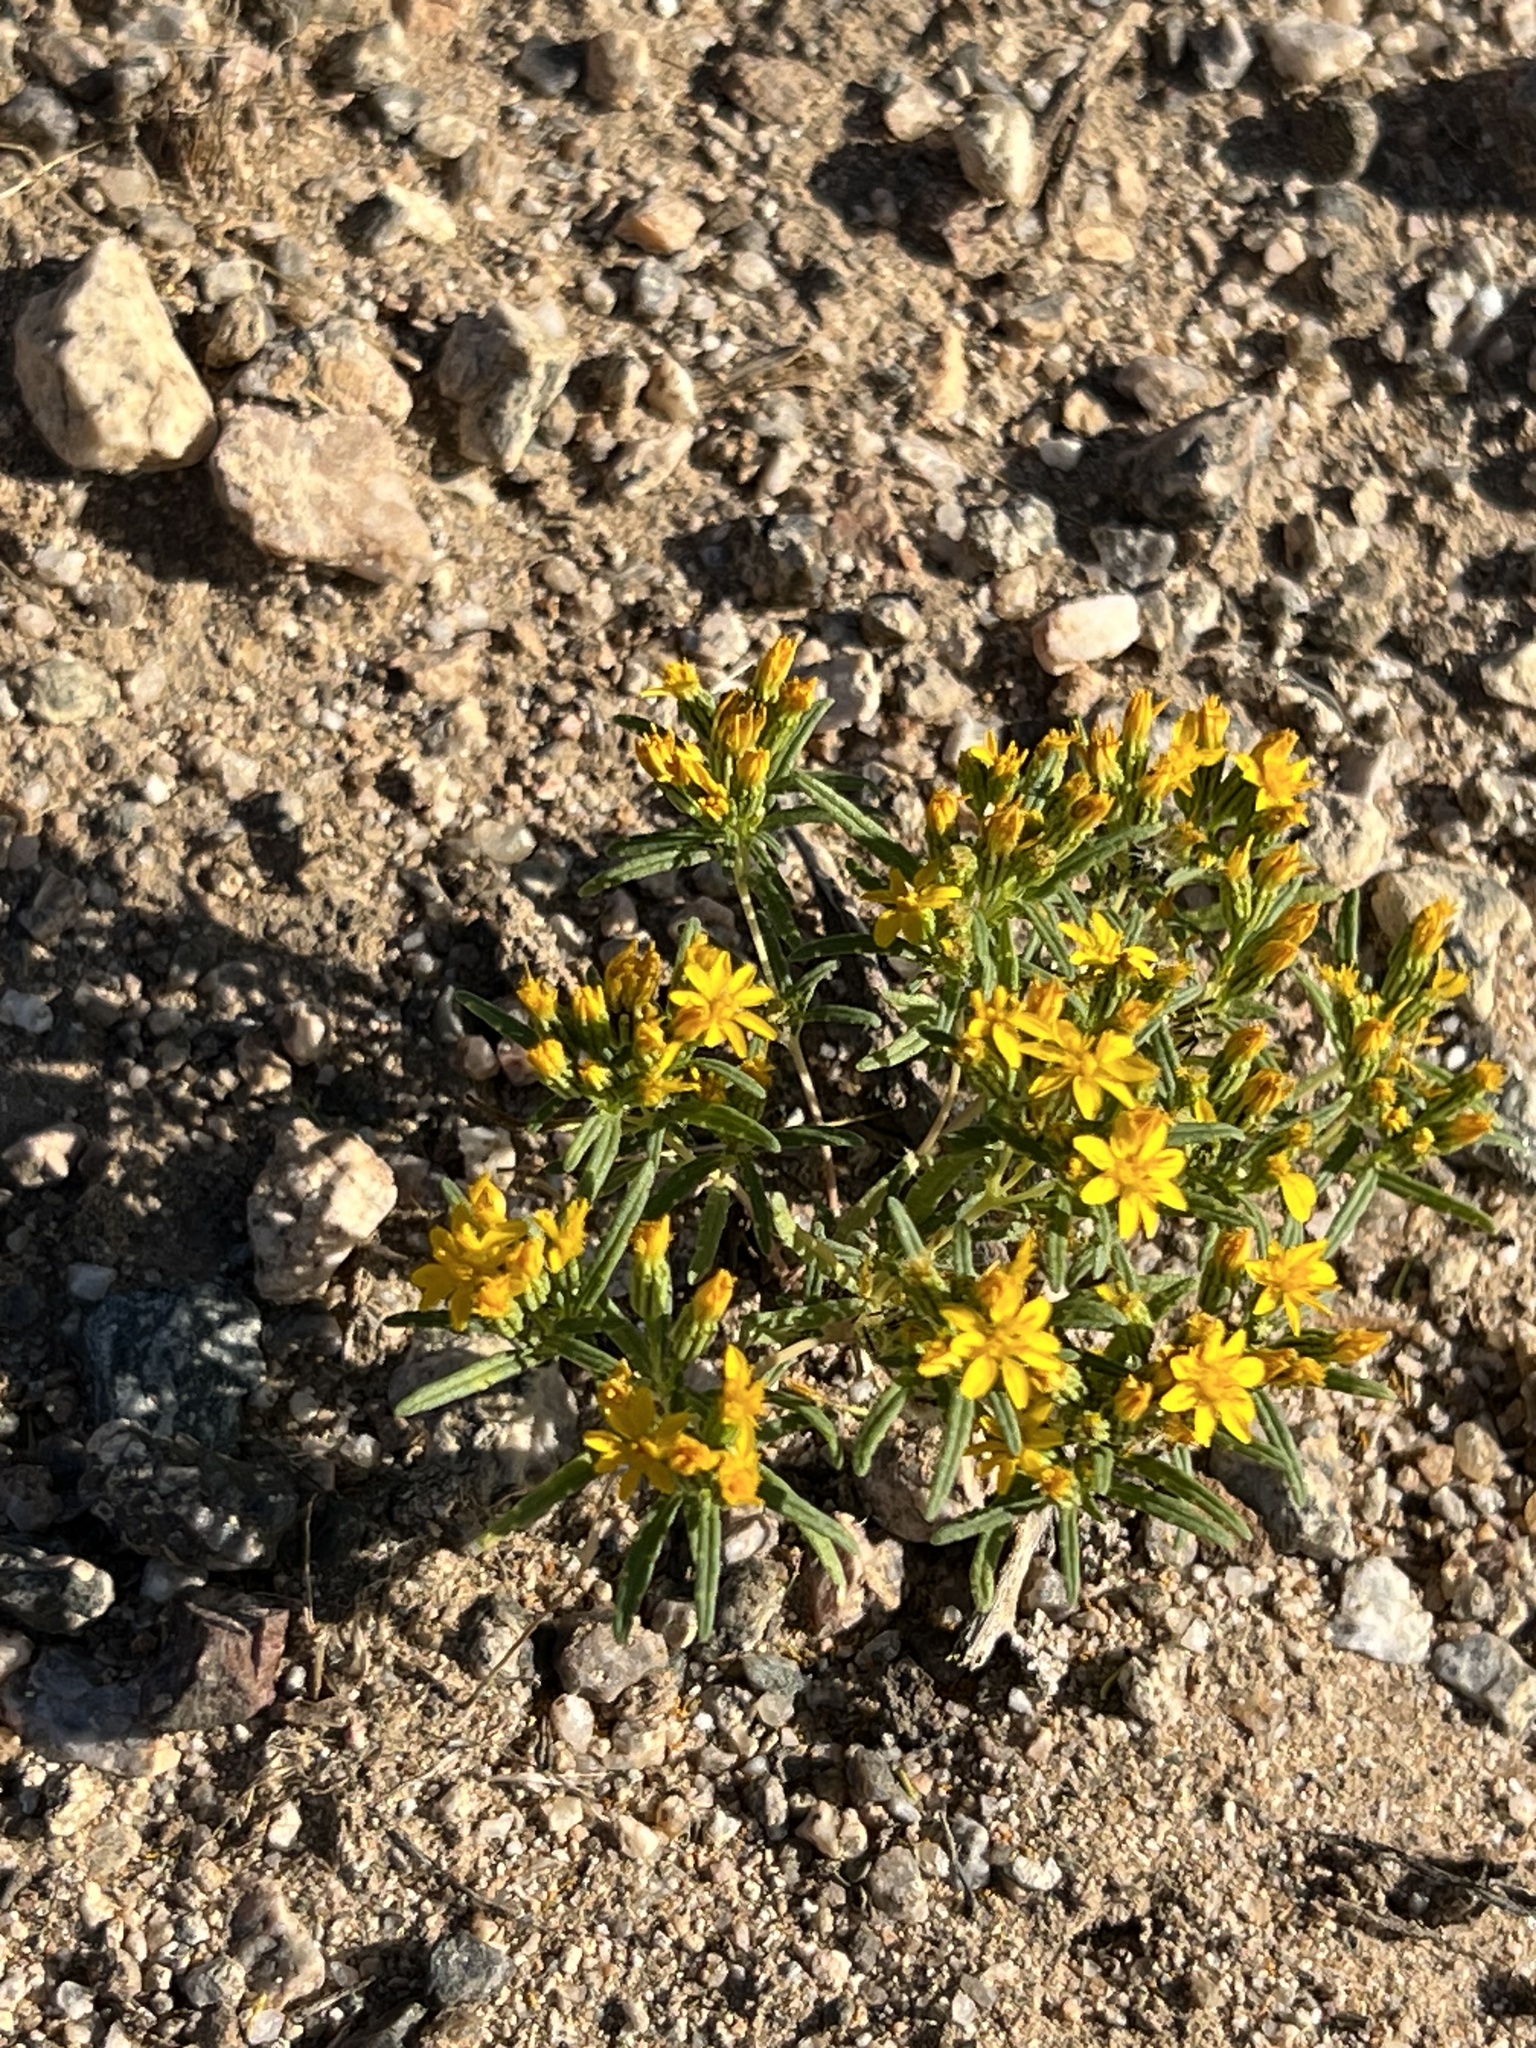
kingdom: Plantae
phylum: Tracheophyta
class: Magnoliopsida
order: Asterales
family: Asteraceae
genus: Pectis
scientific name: Pectis papposa
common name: Many-bristle chinchweed
